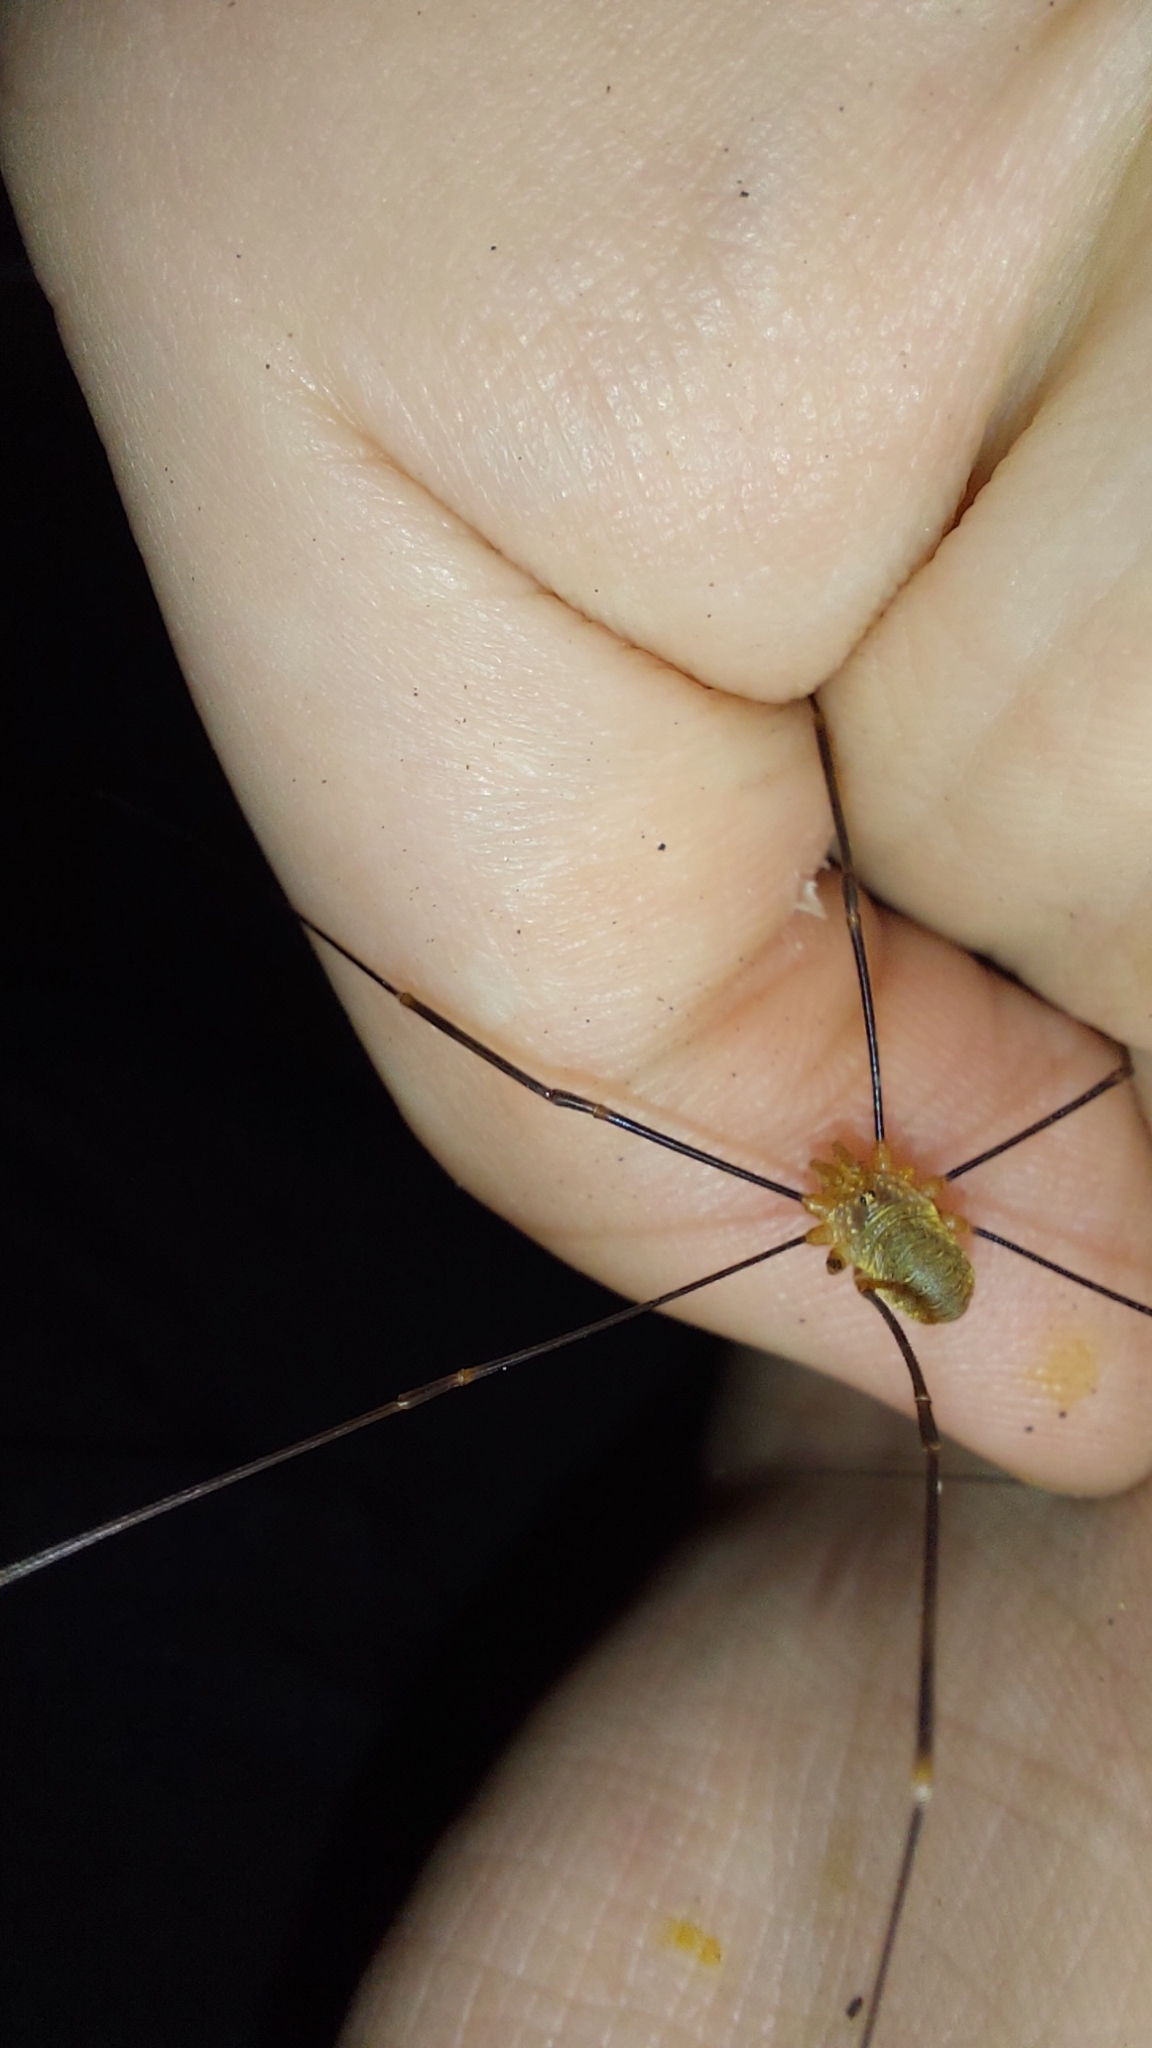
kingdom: Animalia
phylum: Arthropoda
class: Arachnida
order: Opiliones
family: Phalangiidae
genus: Opilio
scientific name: Opilio canestrinii
